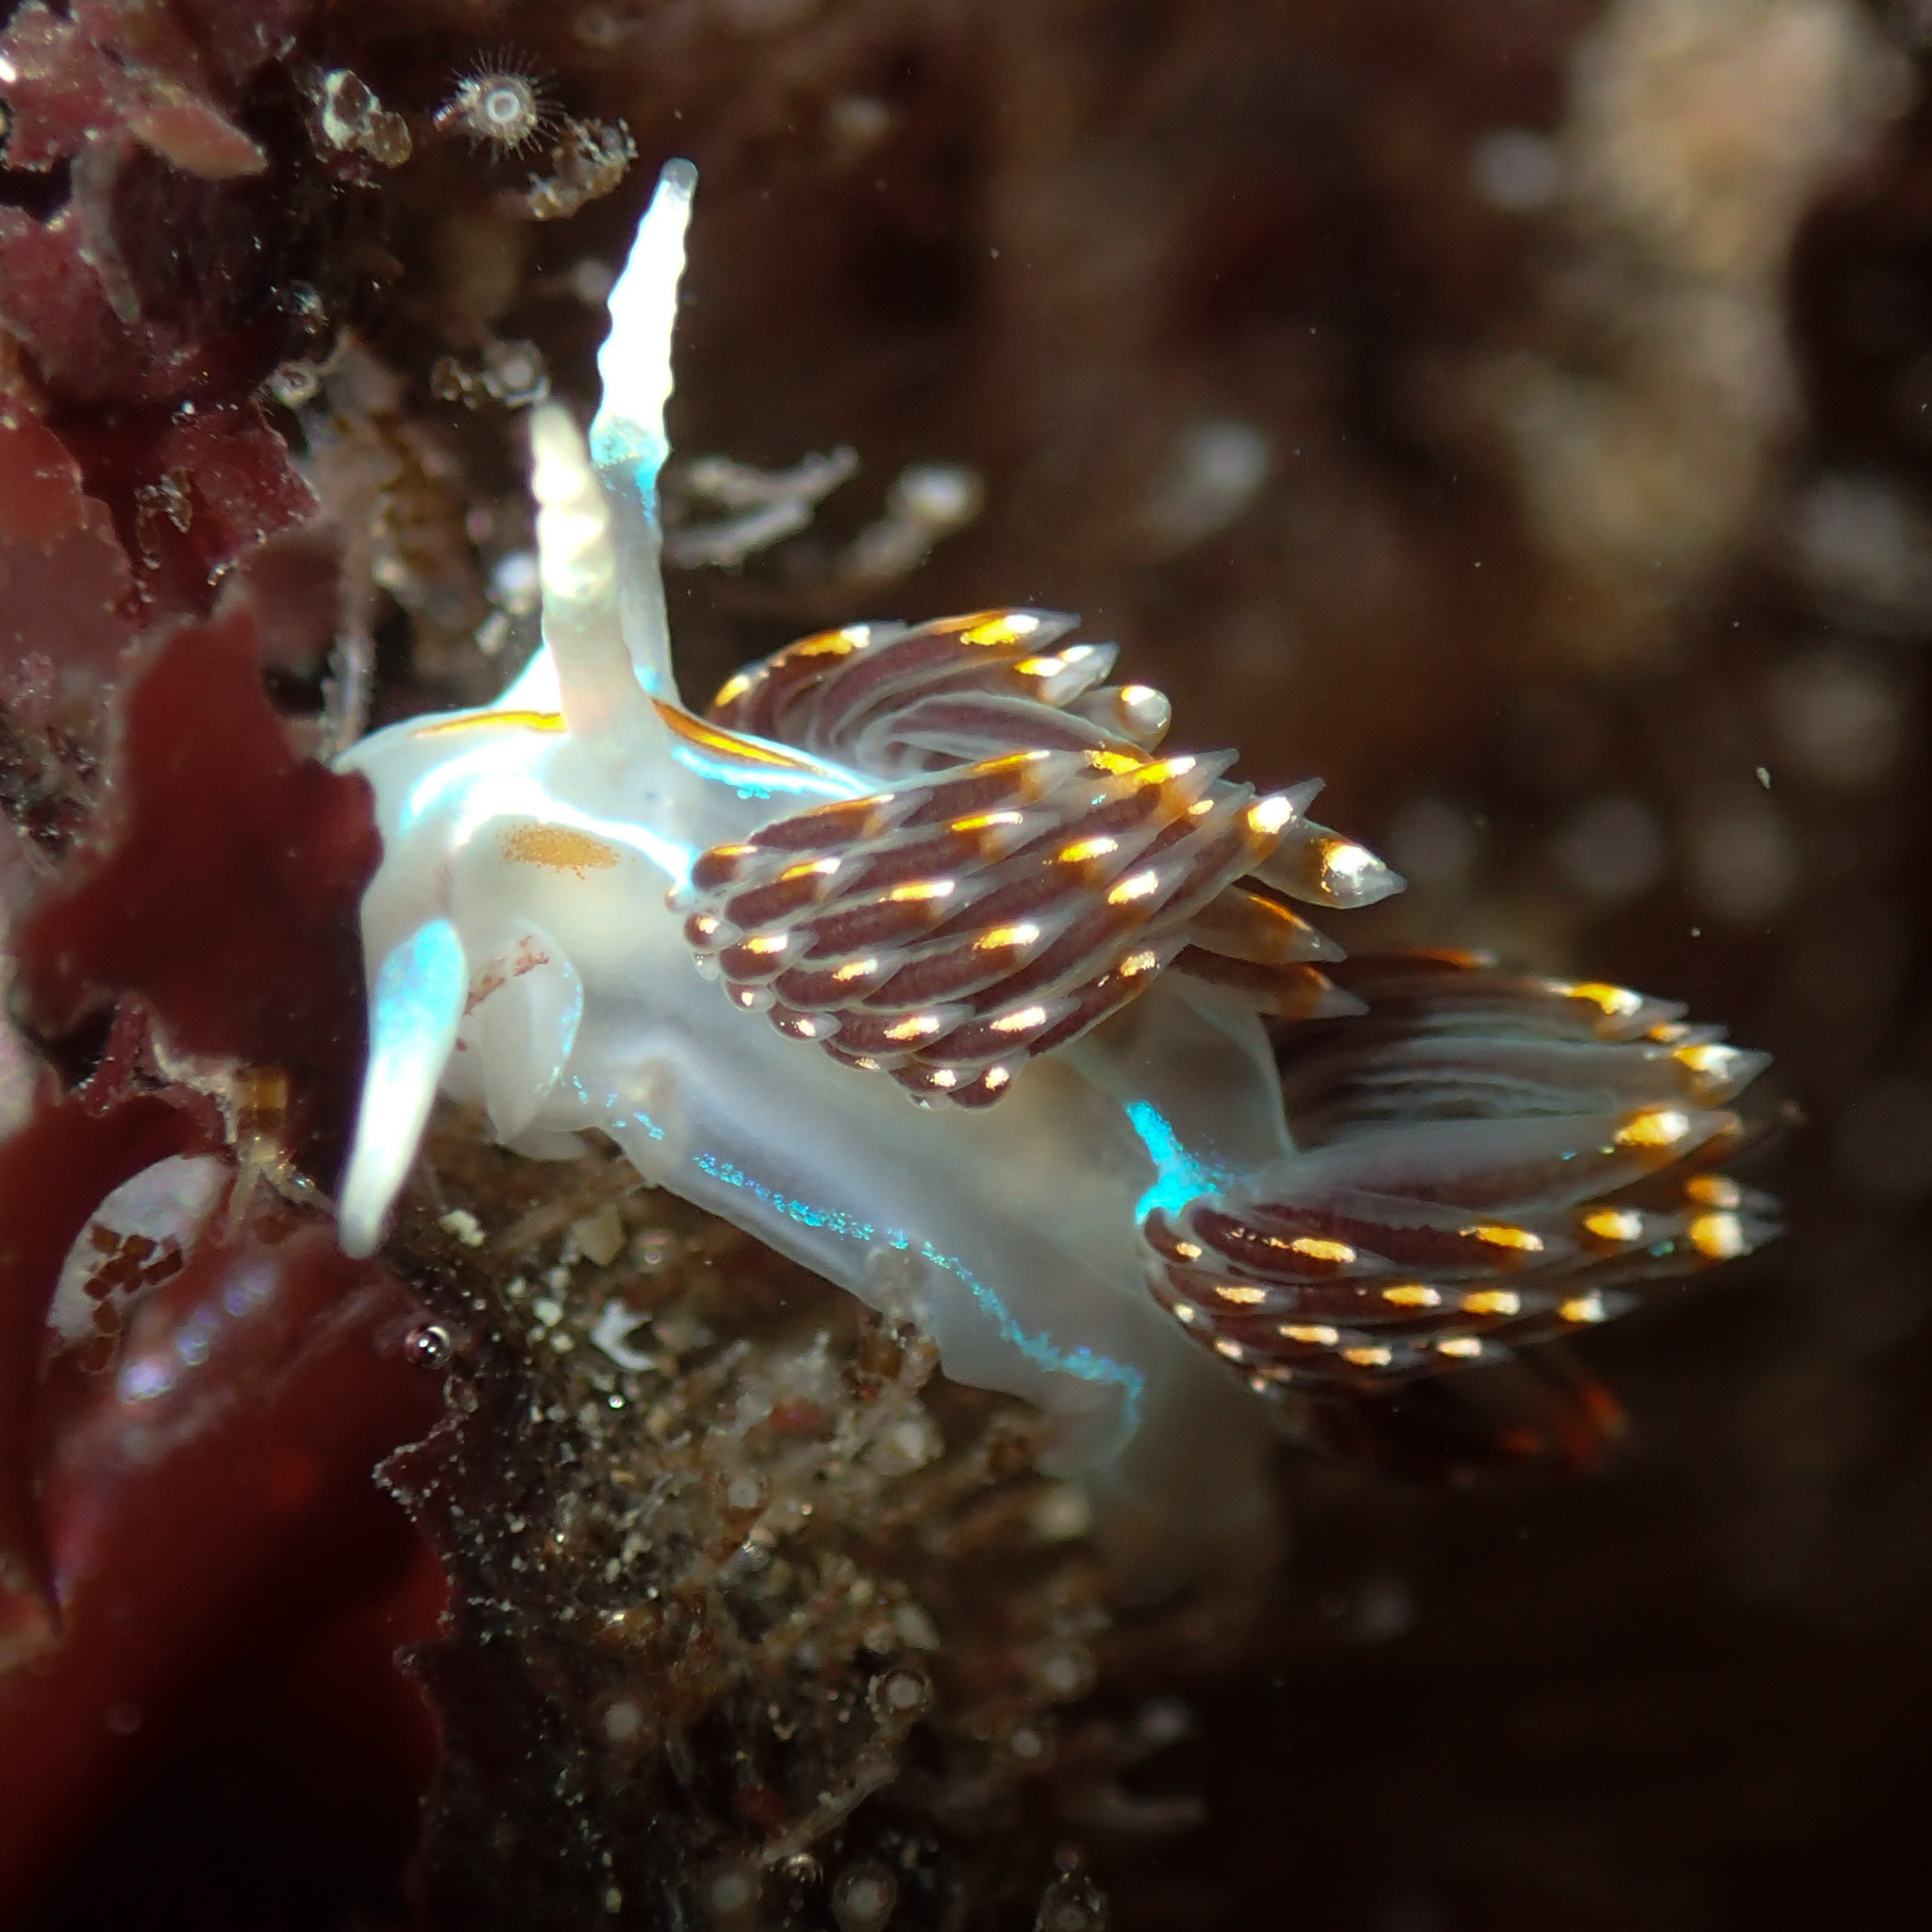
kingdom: Animalia
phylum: Mollusca
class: Gastropoda
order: Nudibranchia
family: Myrrhinidae
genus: Hermissenda
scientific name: Hermissenda opalescens
